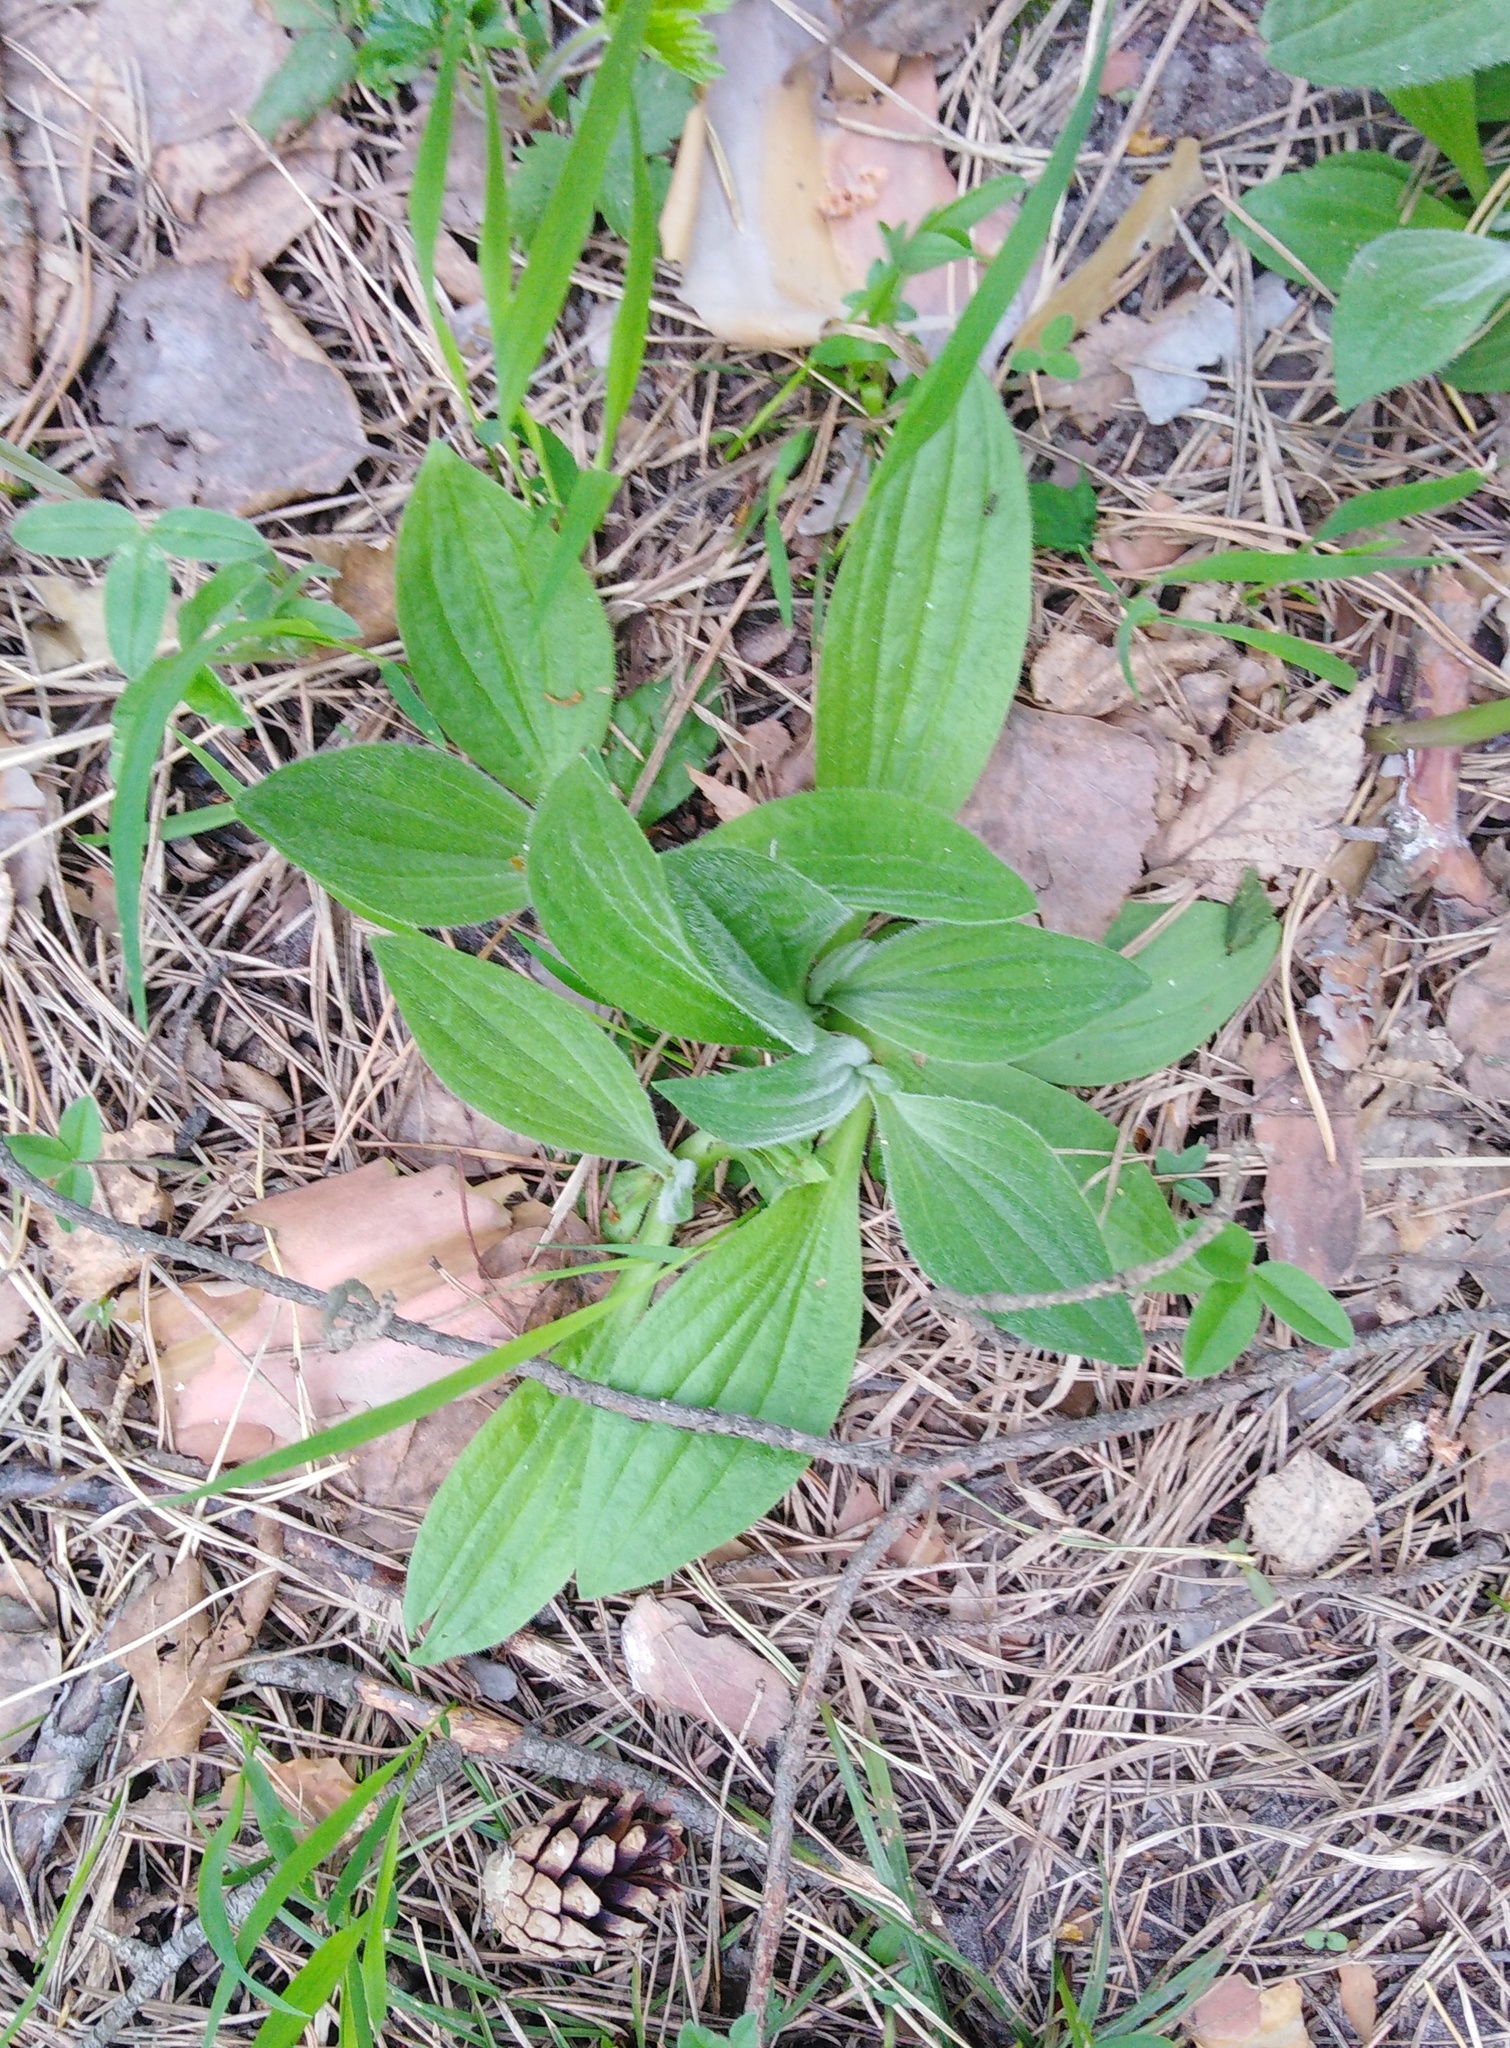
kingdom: Plantae
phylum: Tracheophyta
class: Magnoliopsida
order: Lamiales
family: Plantaginaceae
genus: Plantago
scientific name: Plantago media
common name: Hoary plantain
